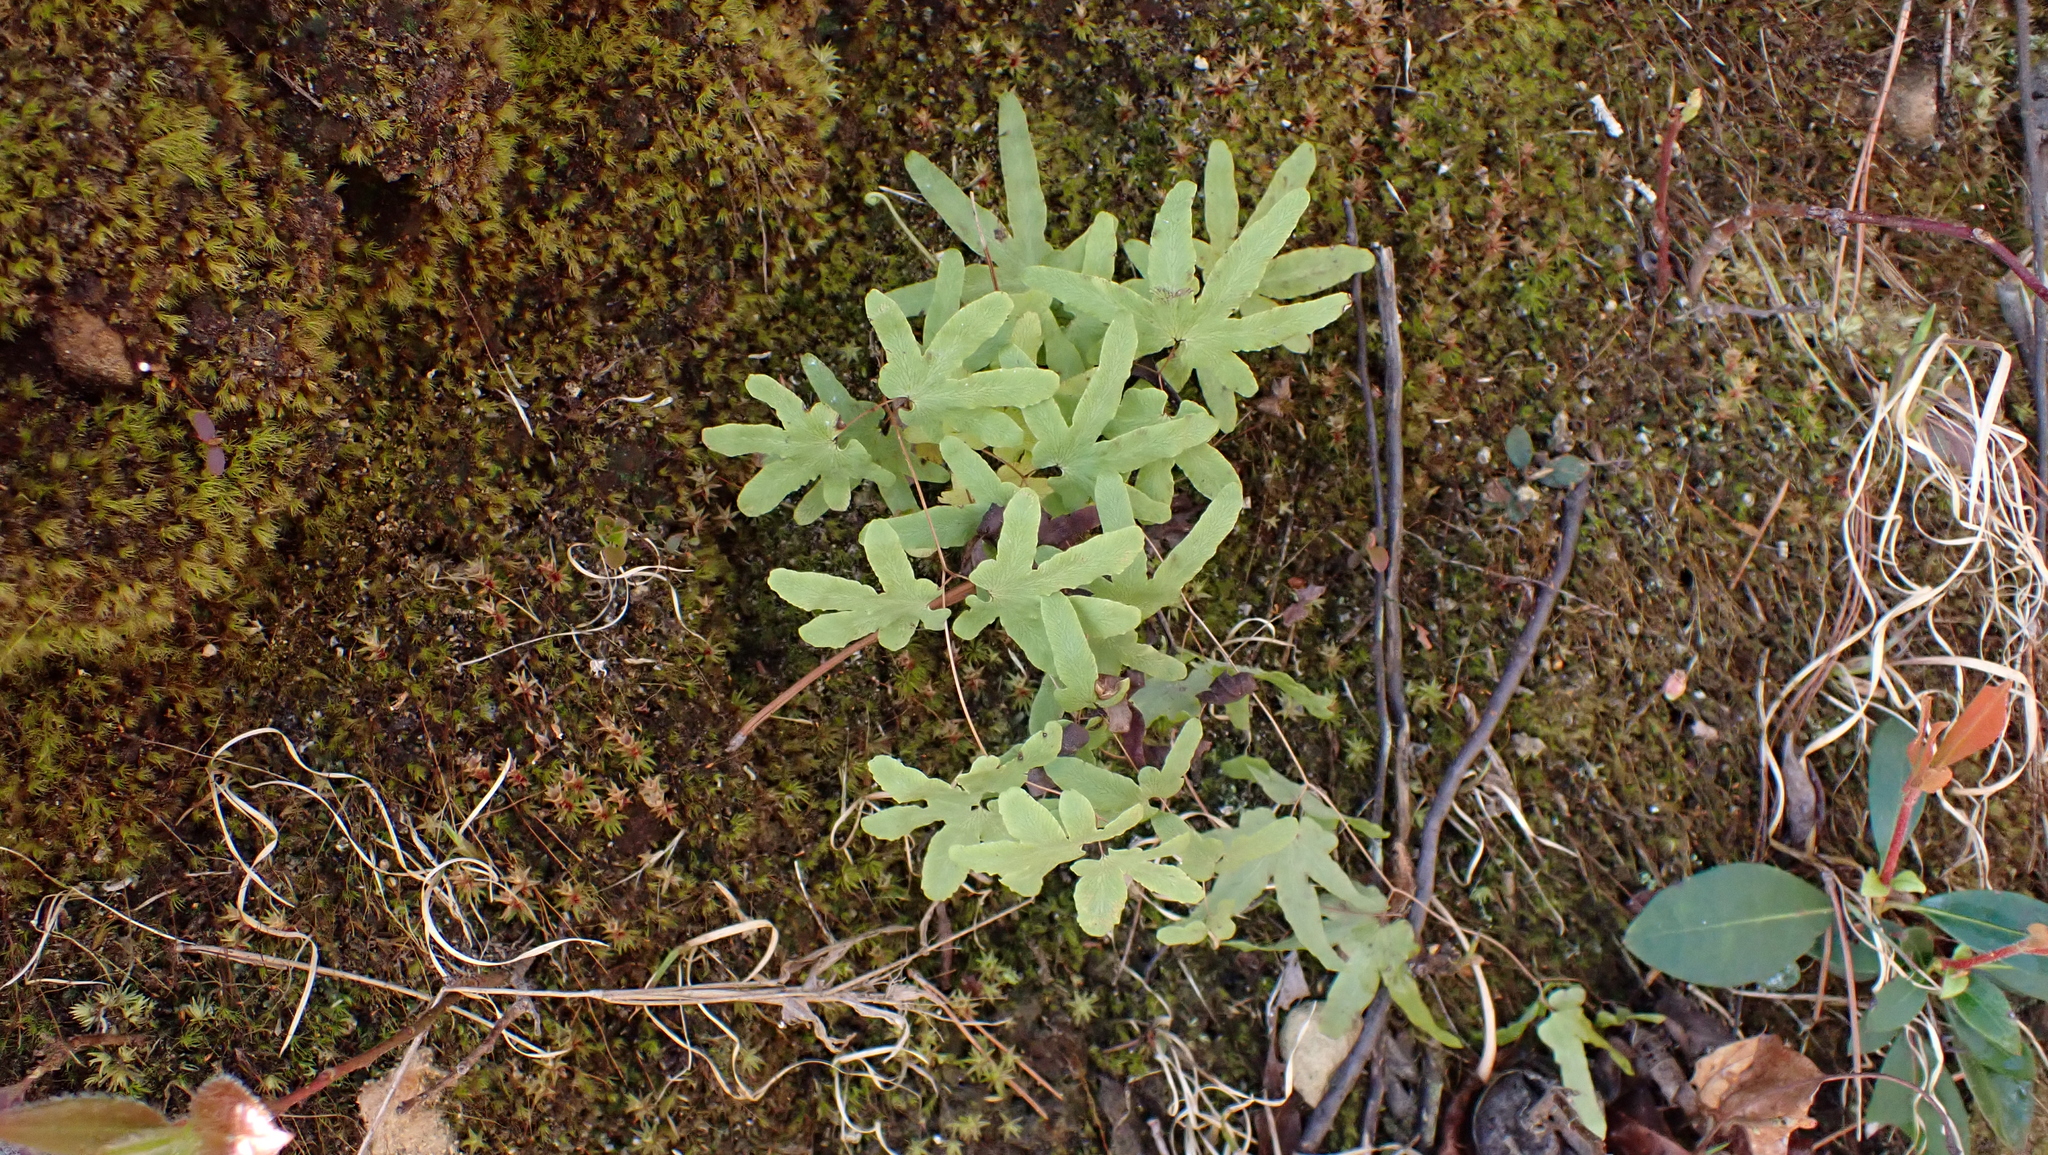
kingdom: Plantae
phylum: Tracheophyta
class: Polypodiopsida
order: Schizaeales
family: Lygodiaceae
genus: Lygodium
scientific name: Lygodium palmatum
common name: American climbing fern
